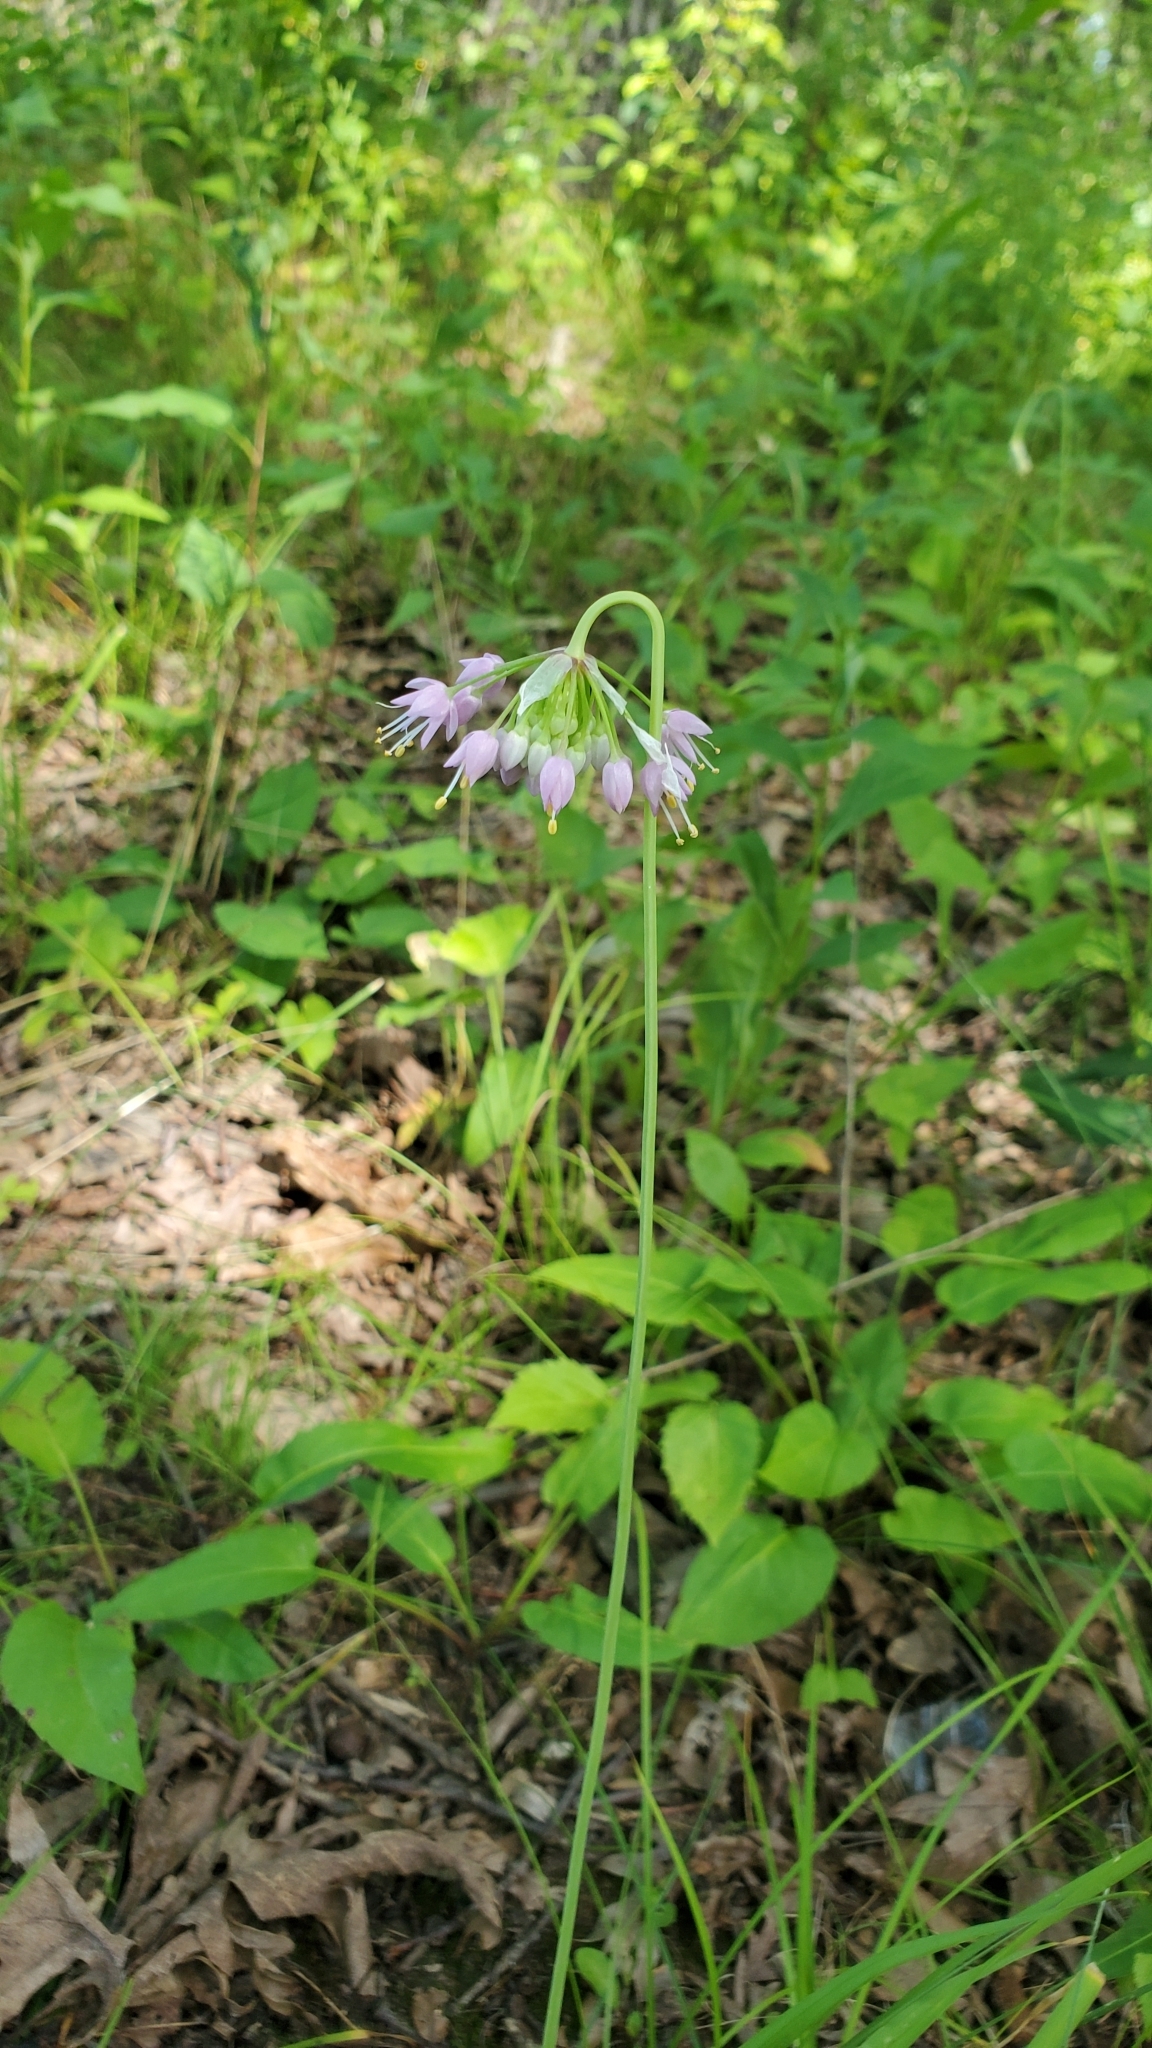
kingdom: Plantae
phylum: Tracheophyta
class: Liliopsida
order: Asparagales
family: Amaryllidaceae
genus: Allium
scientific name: Allium cernuum
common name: Nodding onion
